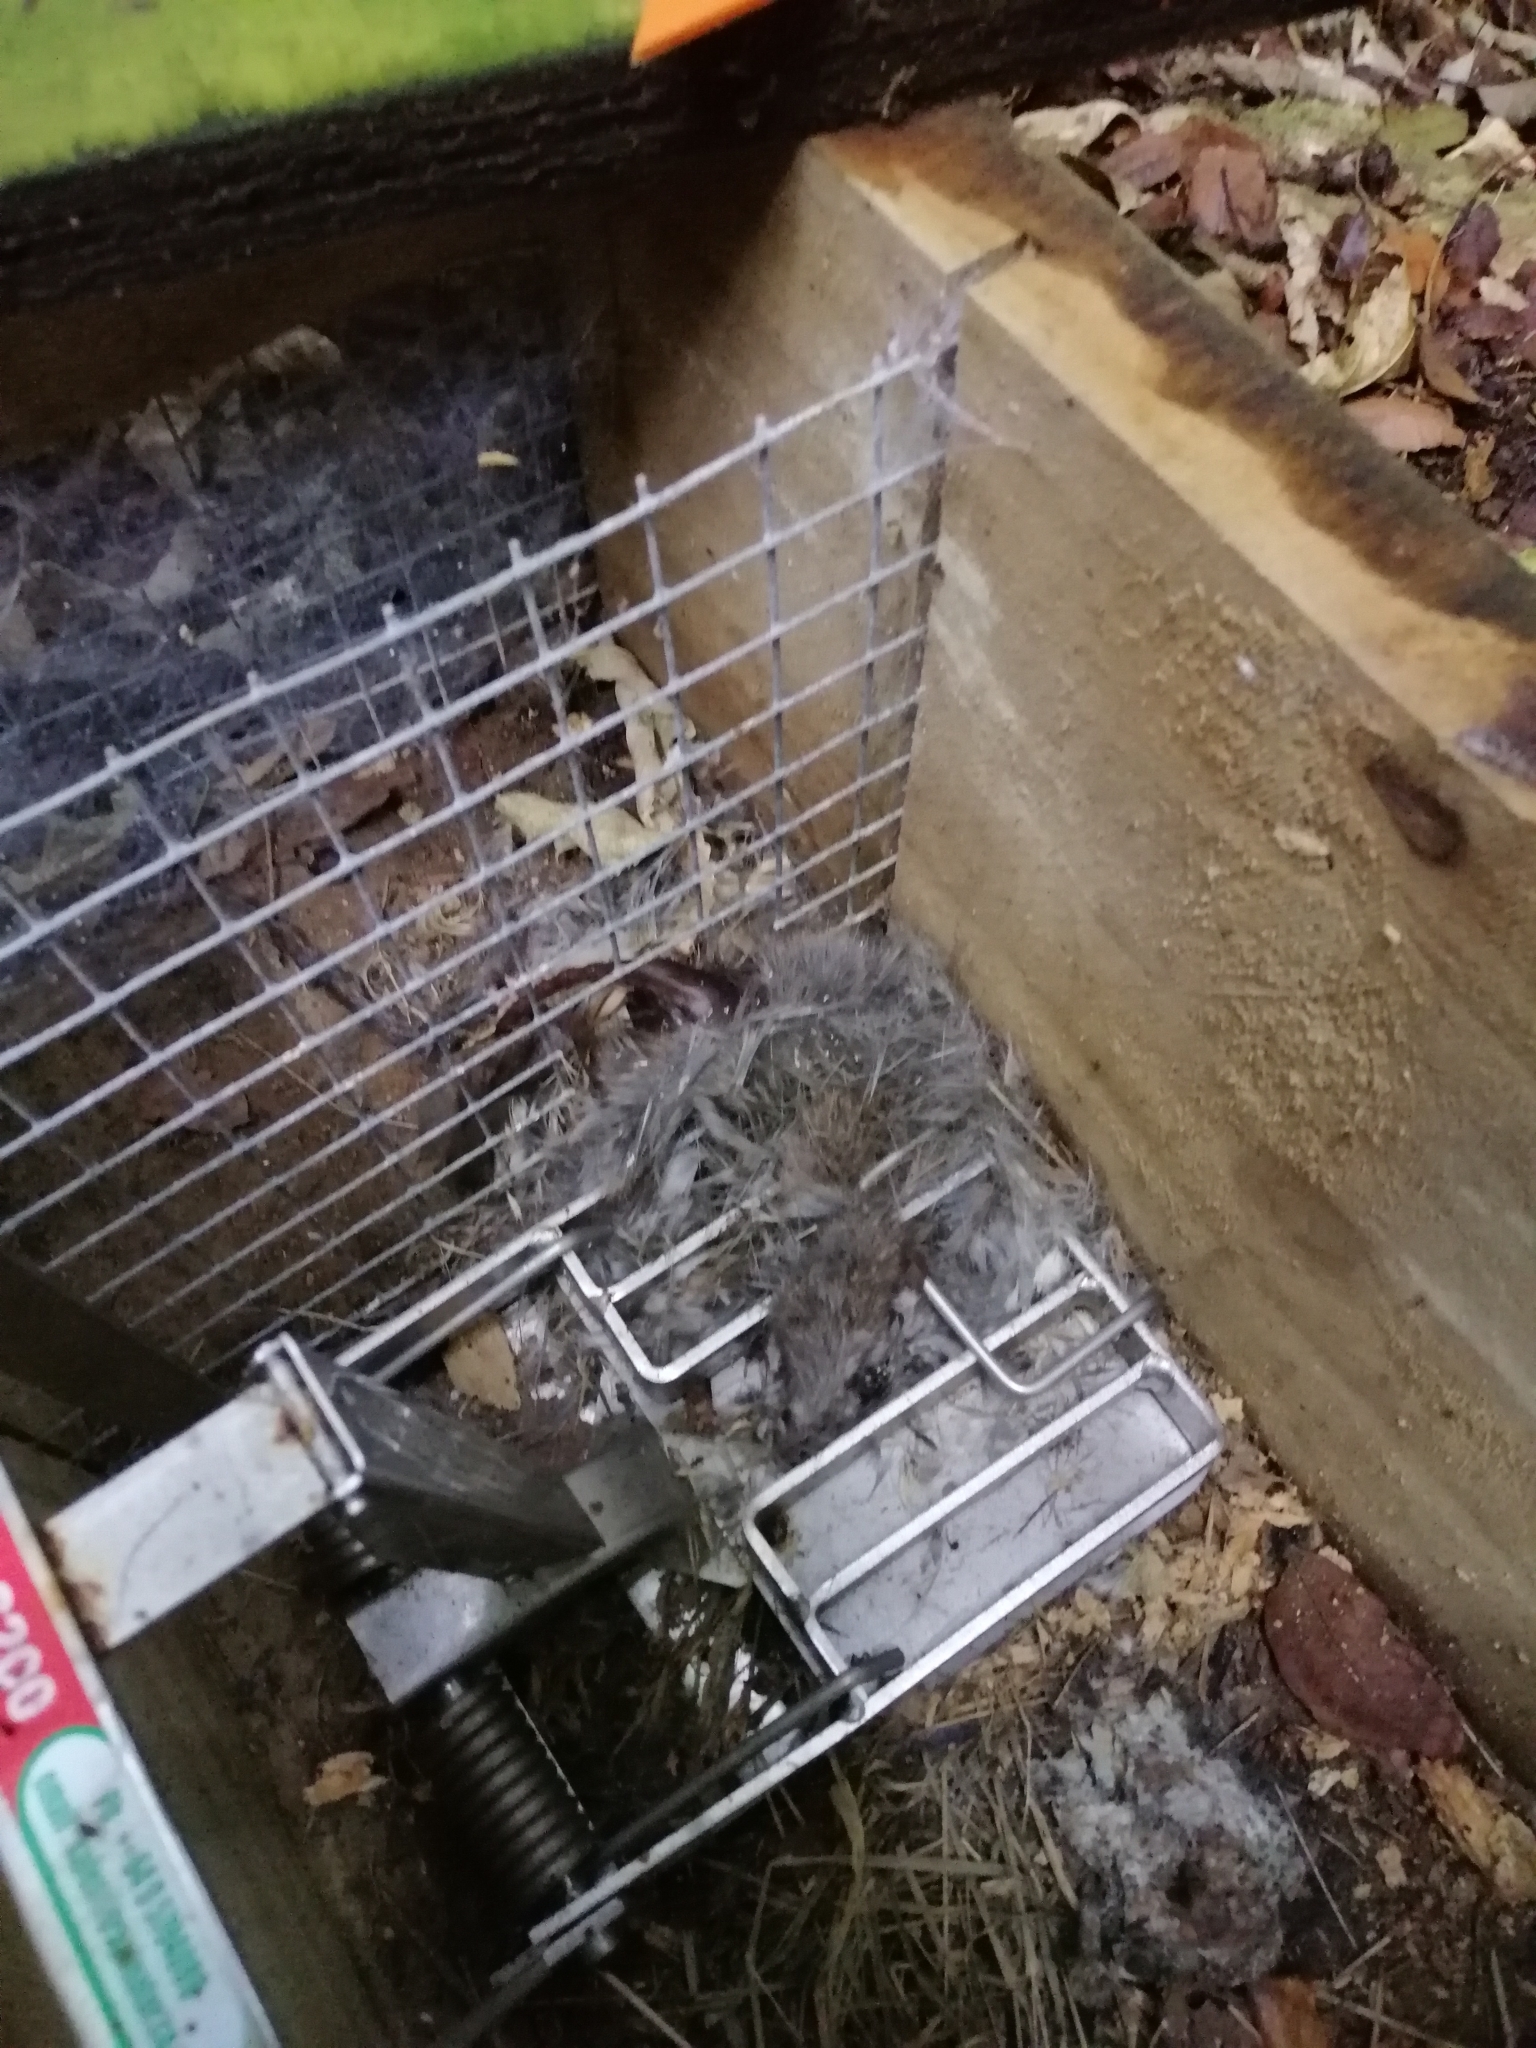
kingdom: Animalia
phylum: Chordata
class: Mammalia
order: Rodentia
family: Muridae
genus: Rattus
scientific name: Rattus
